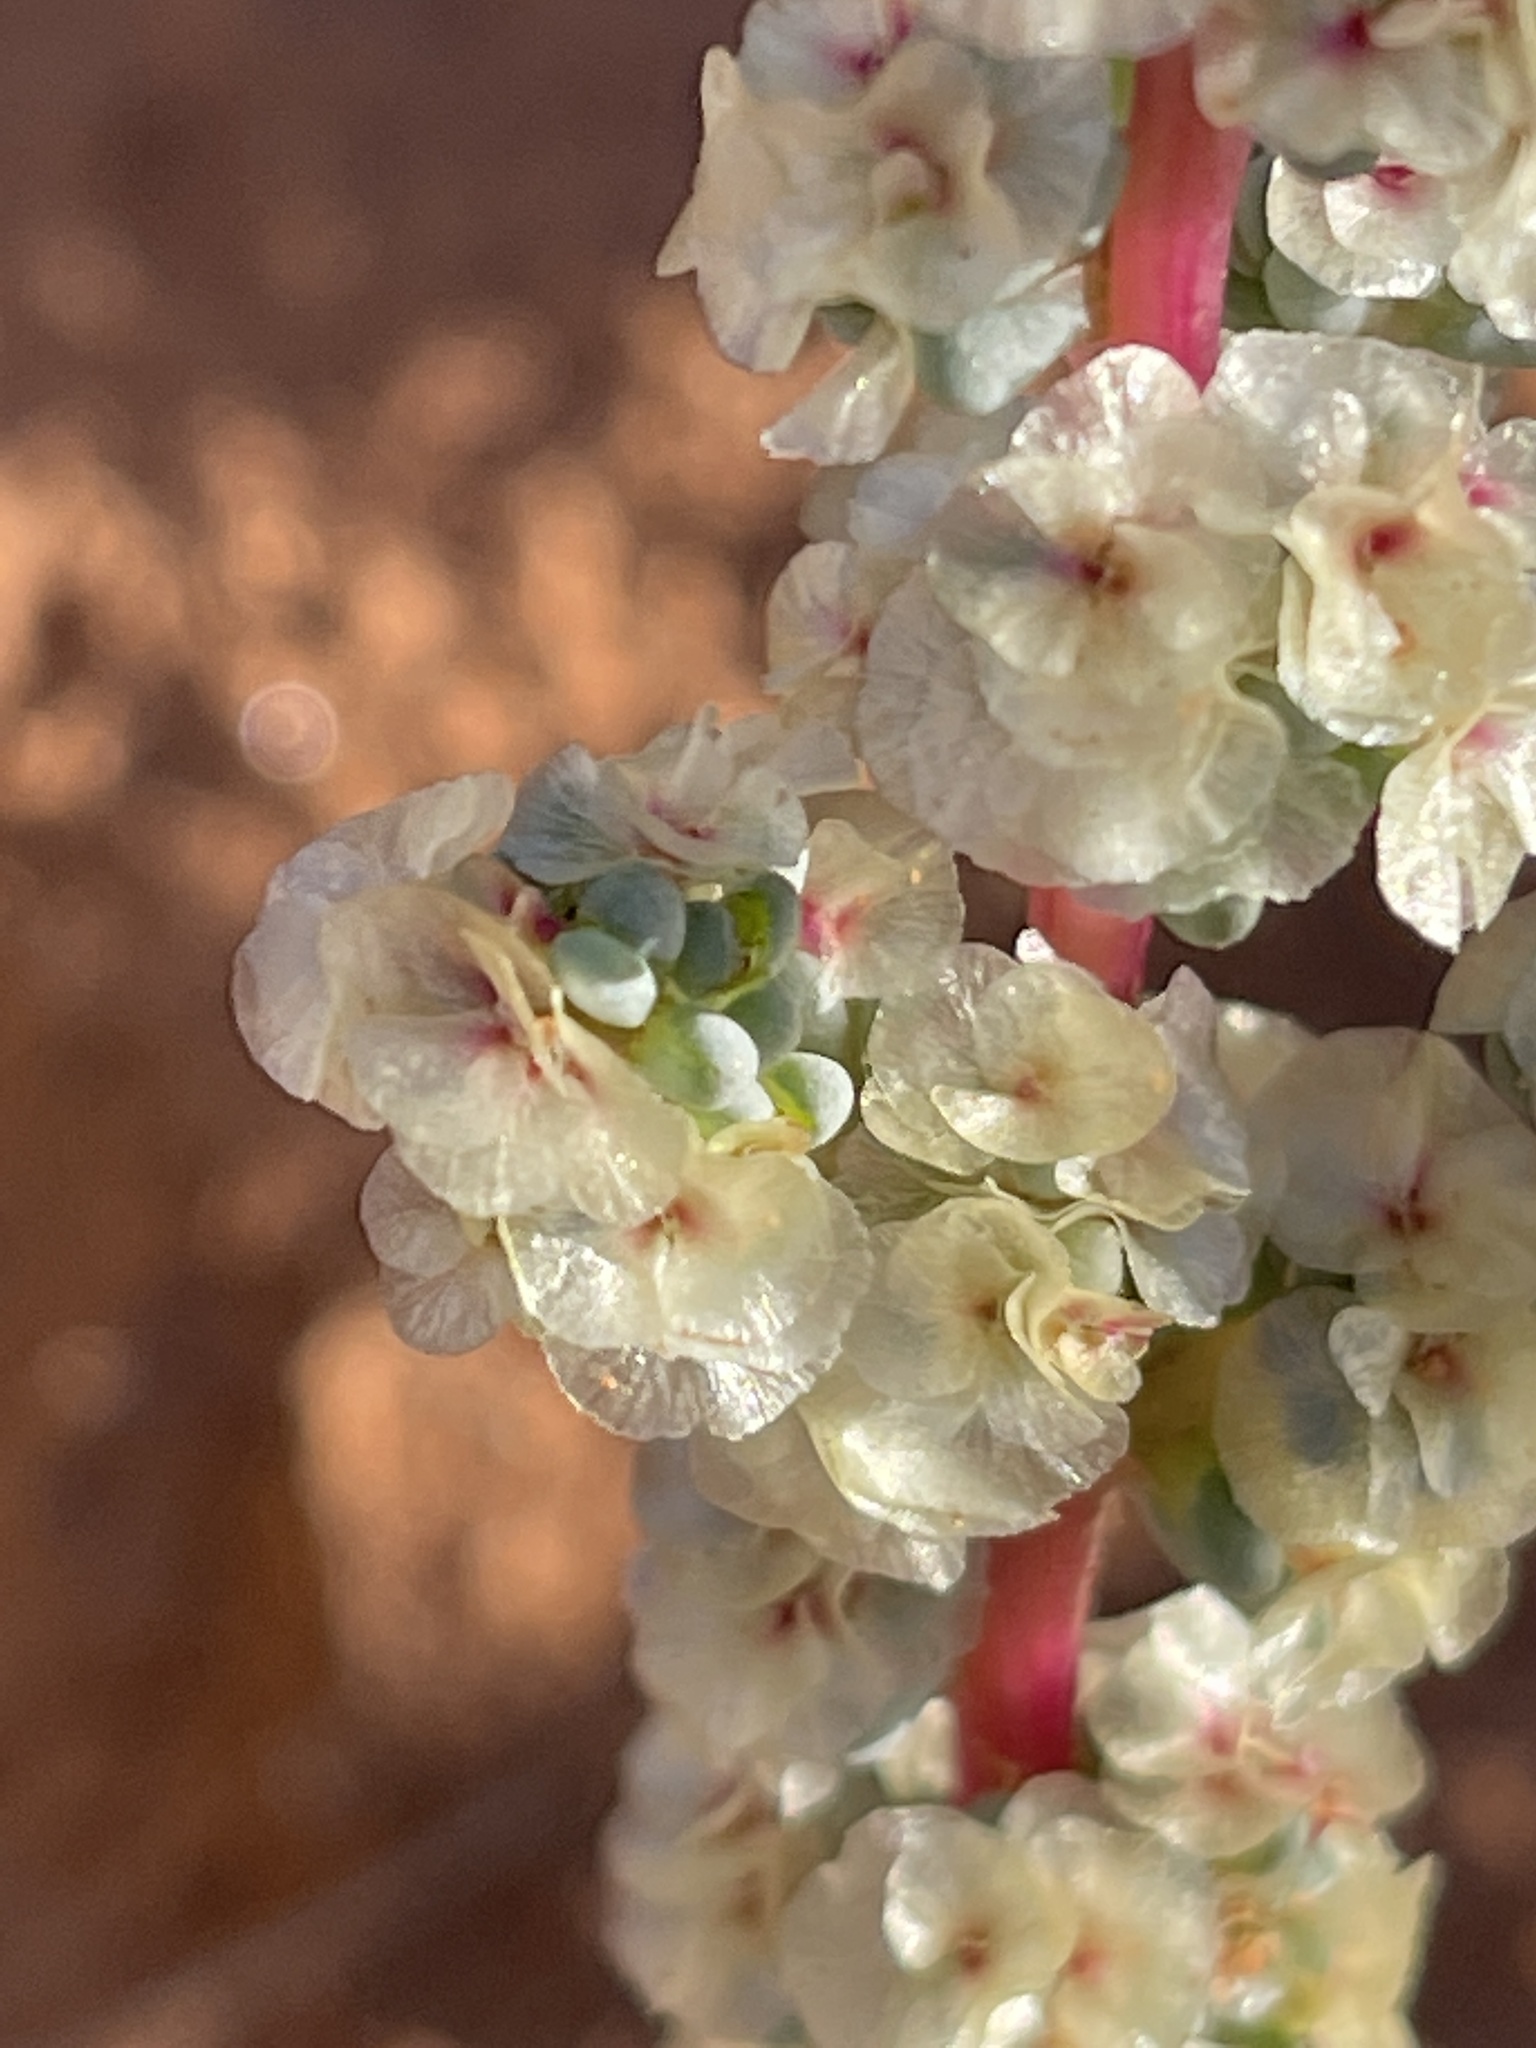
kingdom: Plantae
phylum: Tracheophyta
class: Magnoliopsida
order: Caryophyllales
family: Amaranthaceae
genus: Halogeton
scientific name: Halogeton glomeratus
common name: Saltlover
